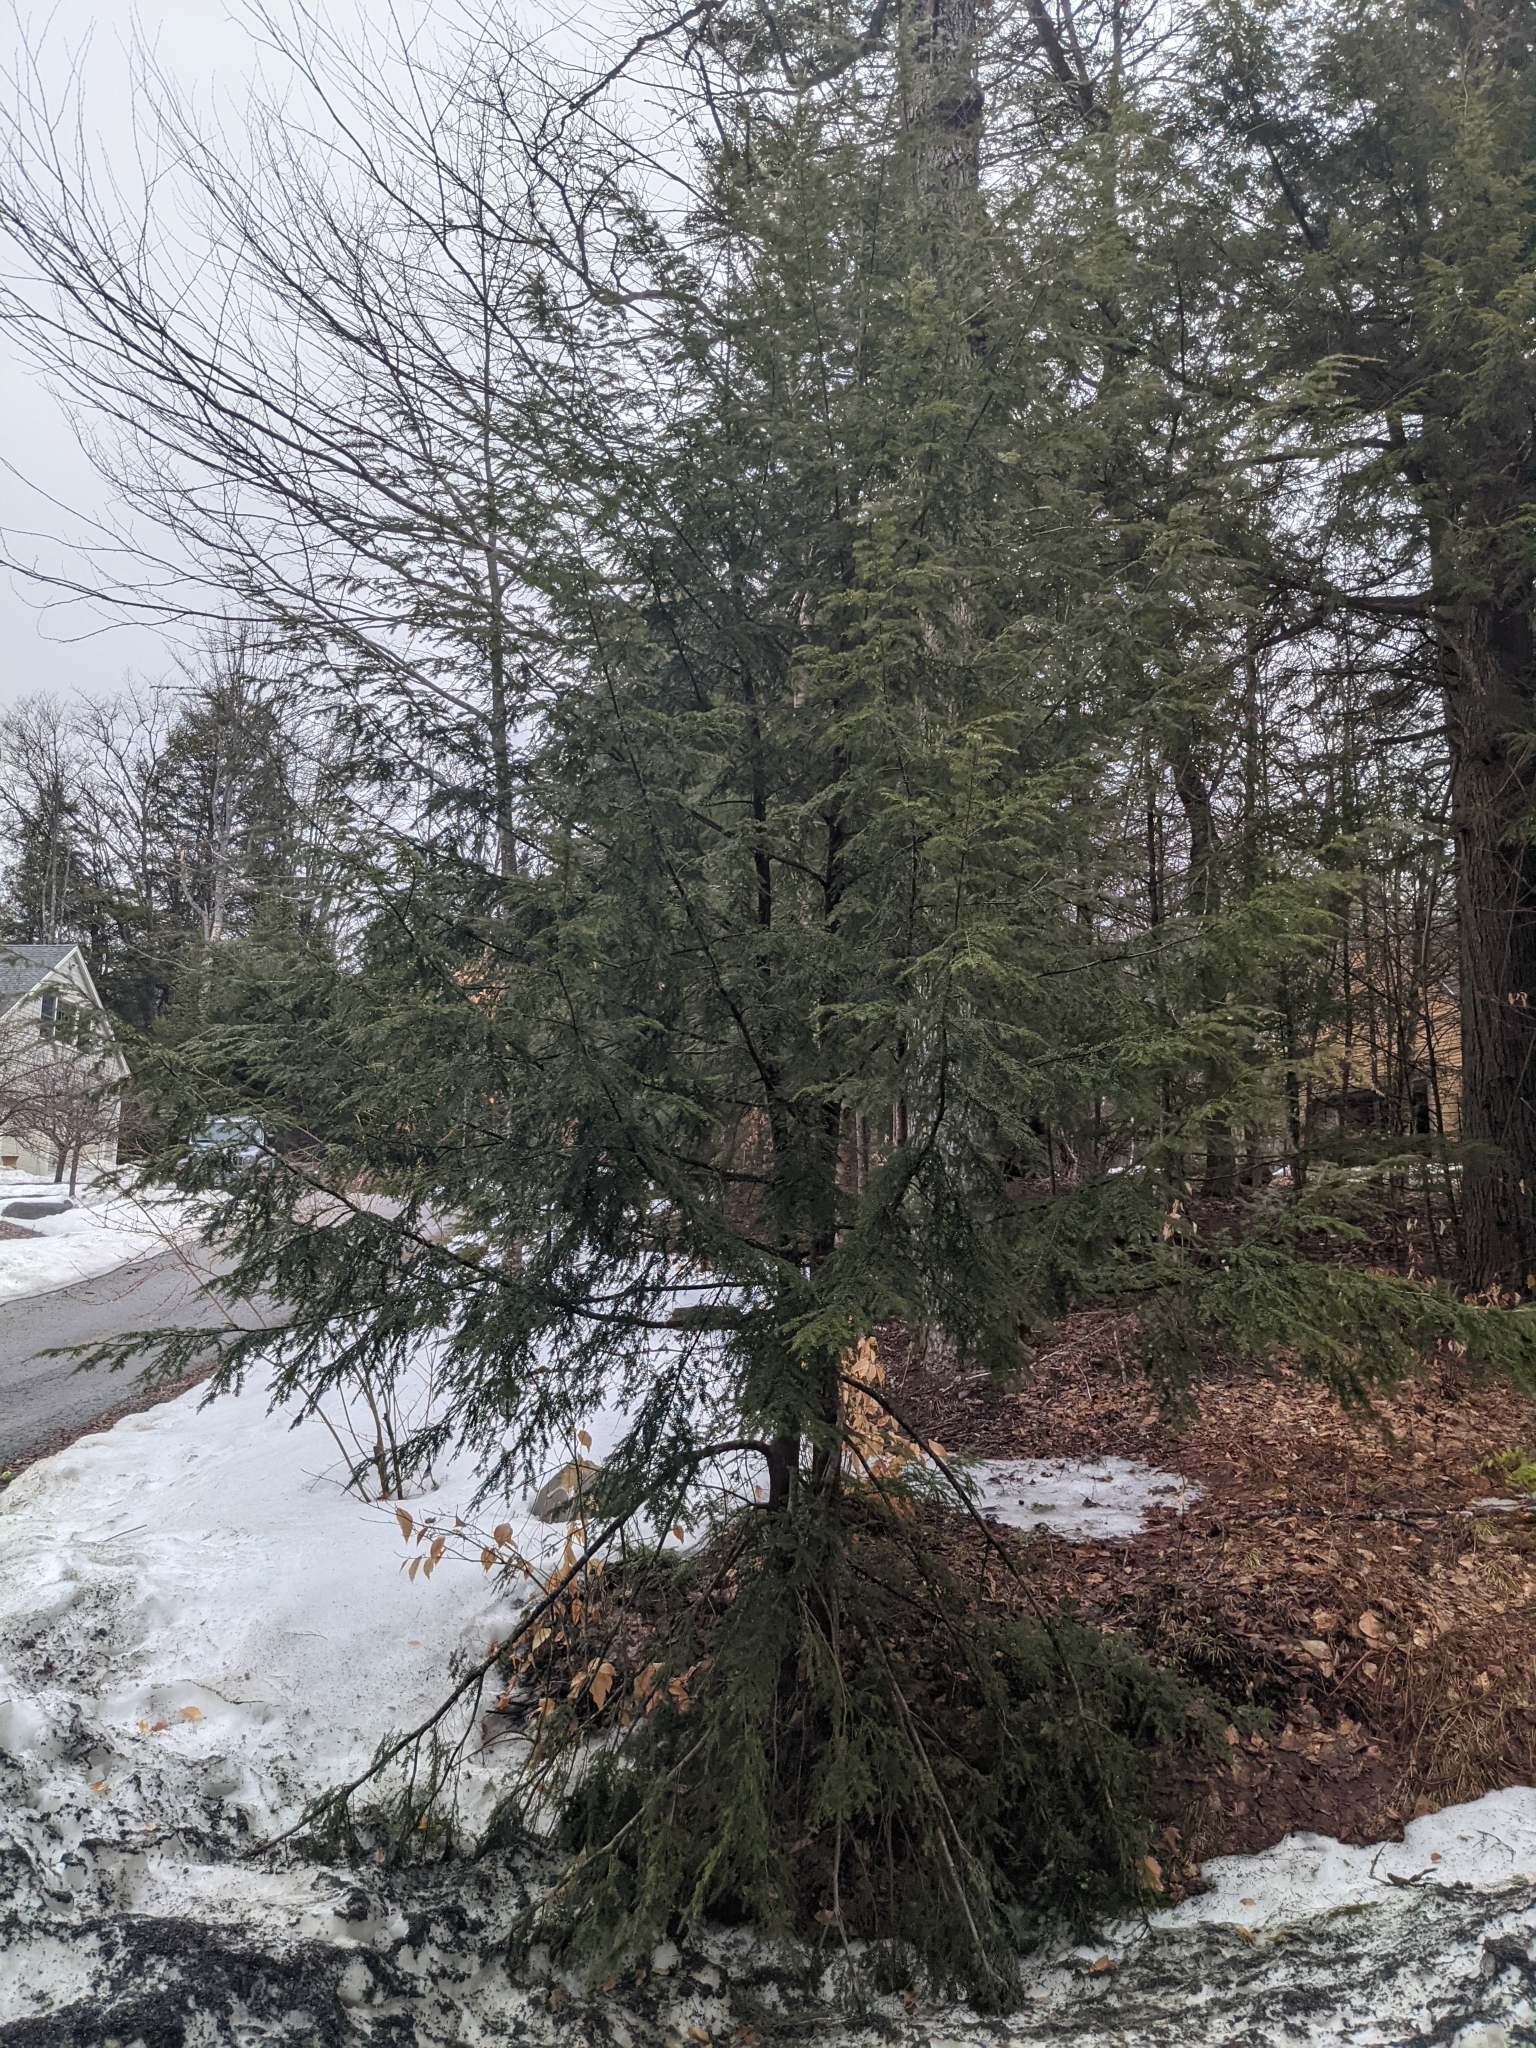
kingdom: Plantae
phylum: Tracheophyta
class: Pinopsida
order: Pinales
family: Pinaceae
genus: Tsuga
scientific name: Tsuga canadensis
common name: Eastern hemlock
